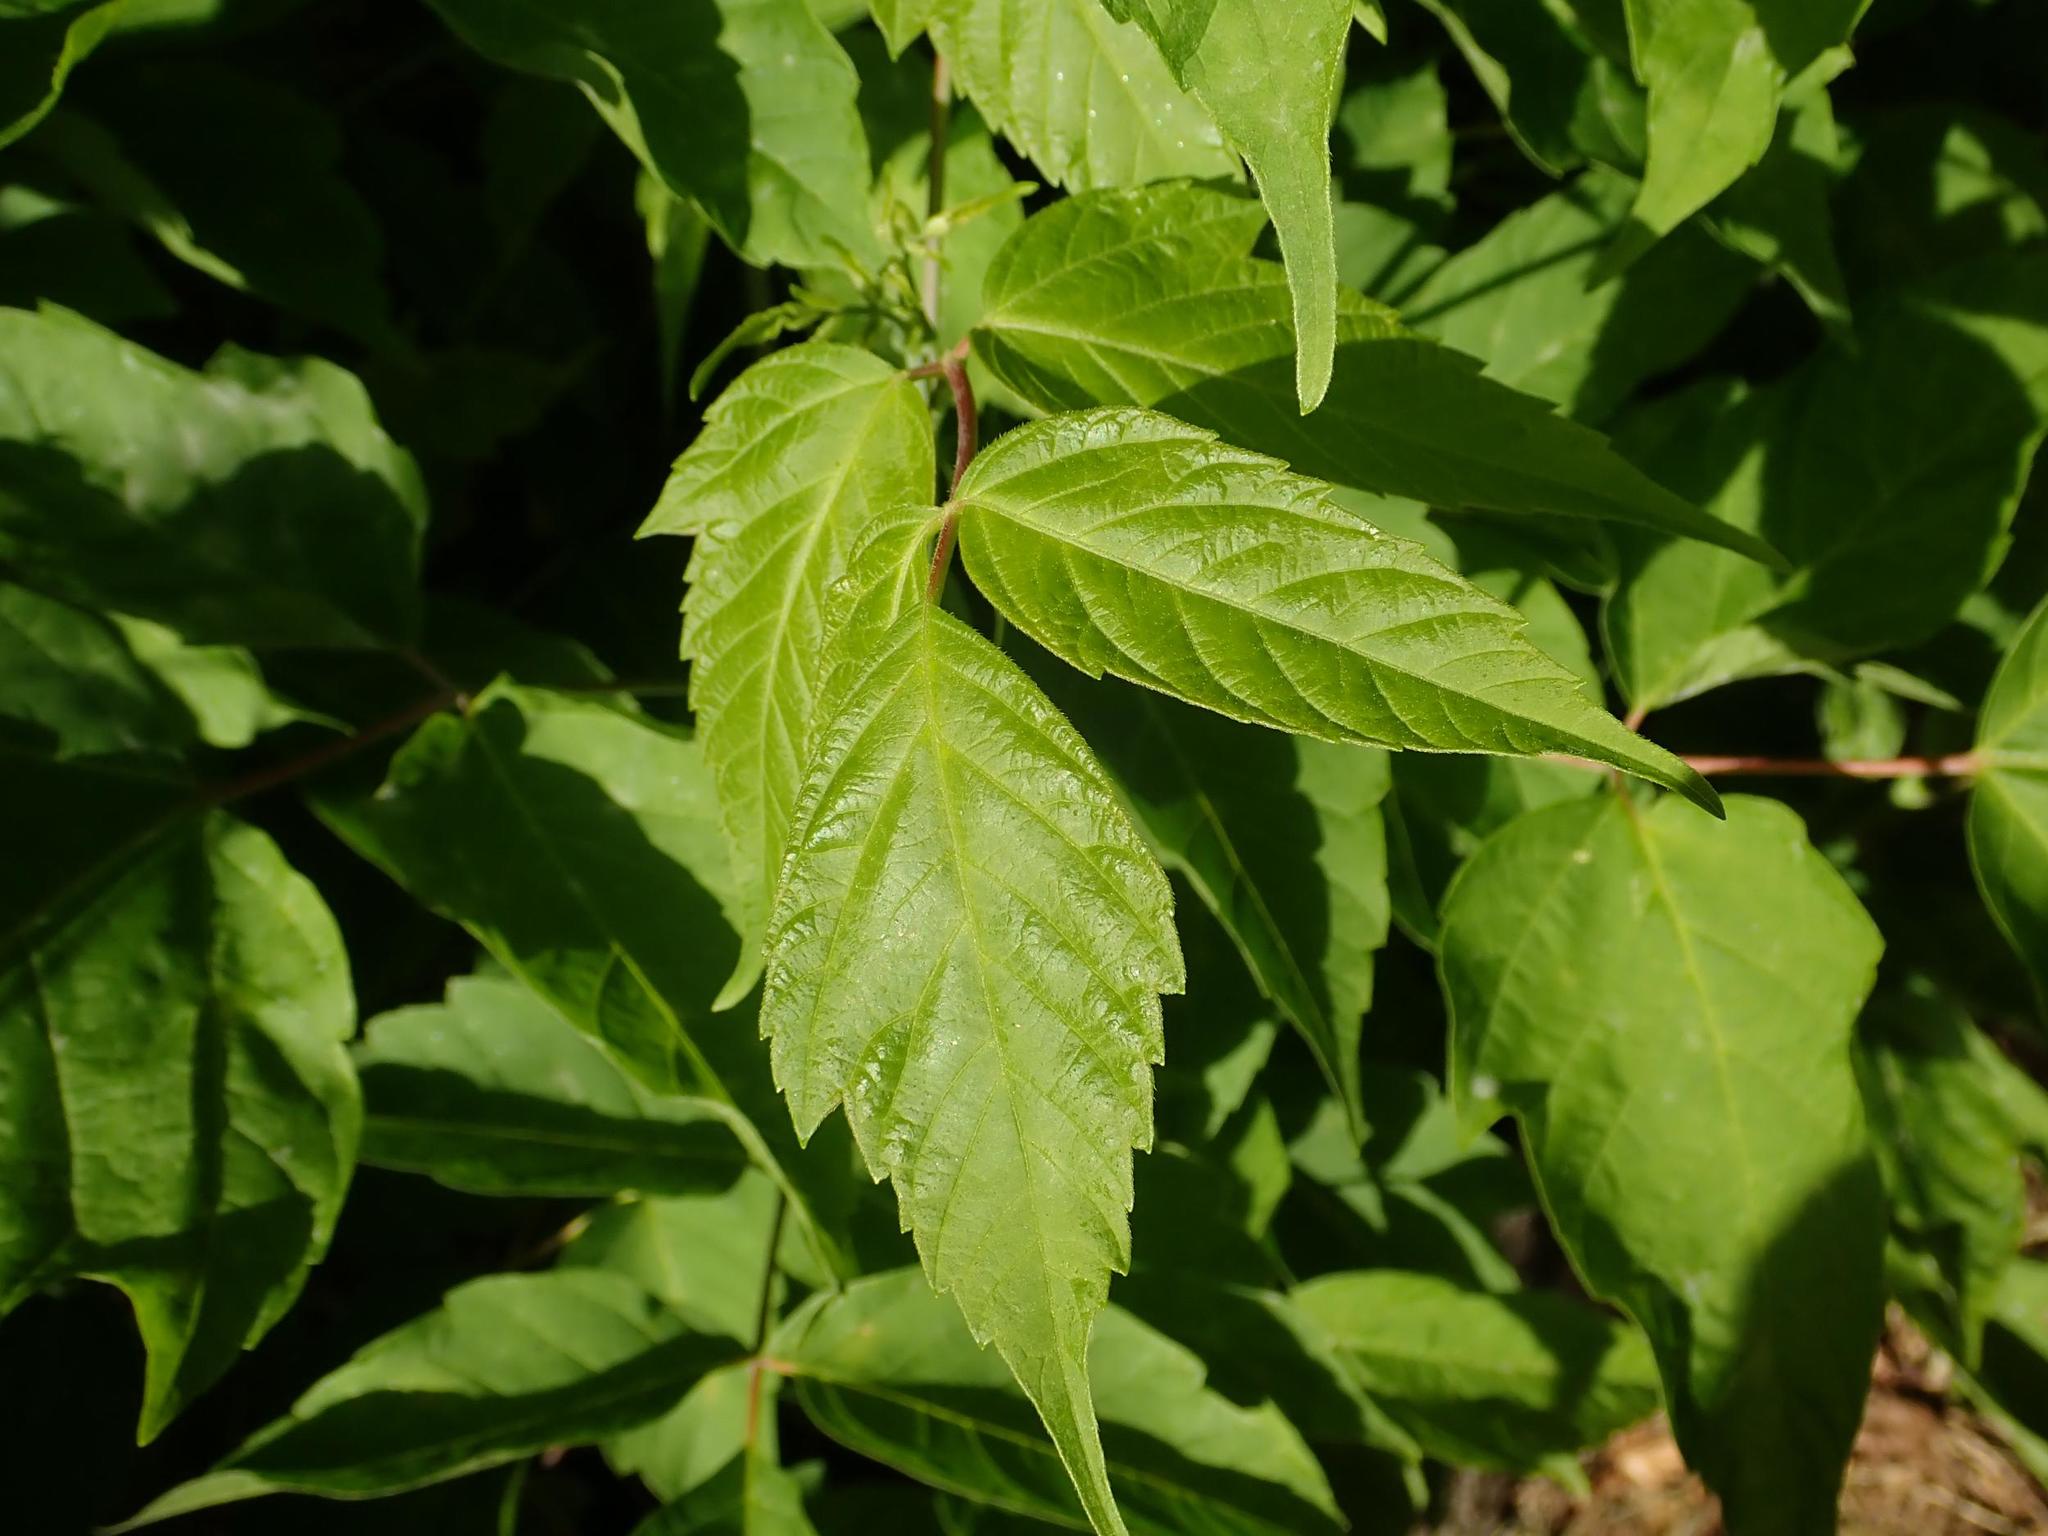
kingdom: Plantae
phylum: Tracheophyta
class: Magnoliopsida
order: Sapindales
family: Sapindaceae
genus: Acer
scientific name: Acer negundo
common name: Ashleaf maple
